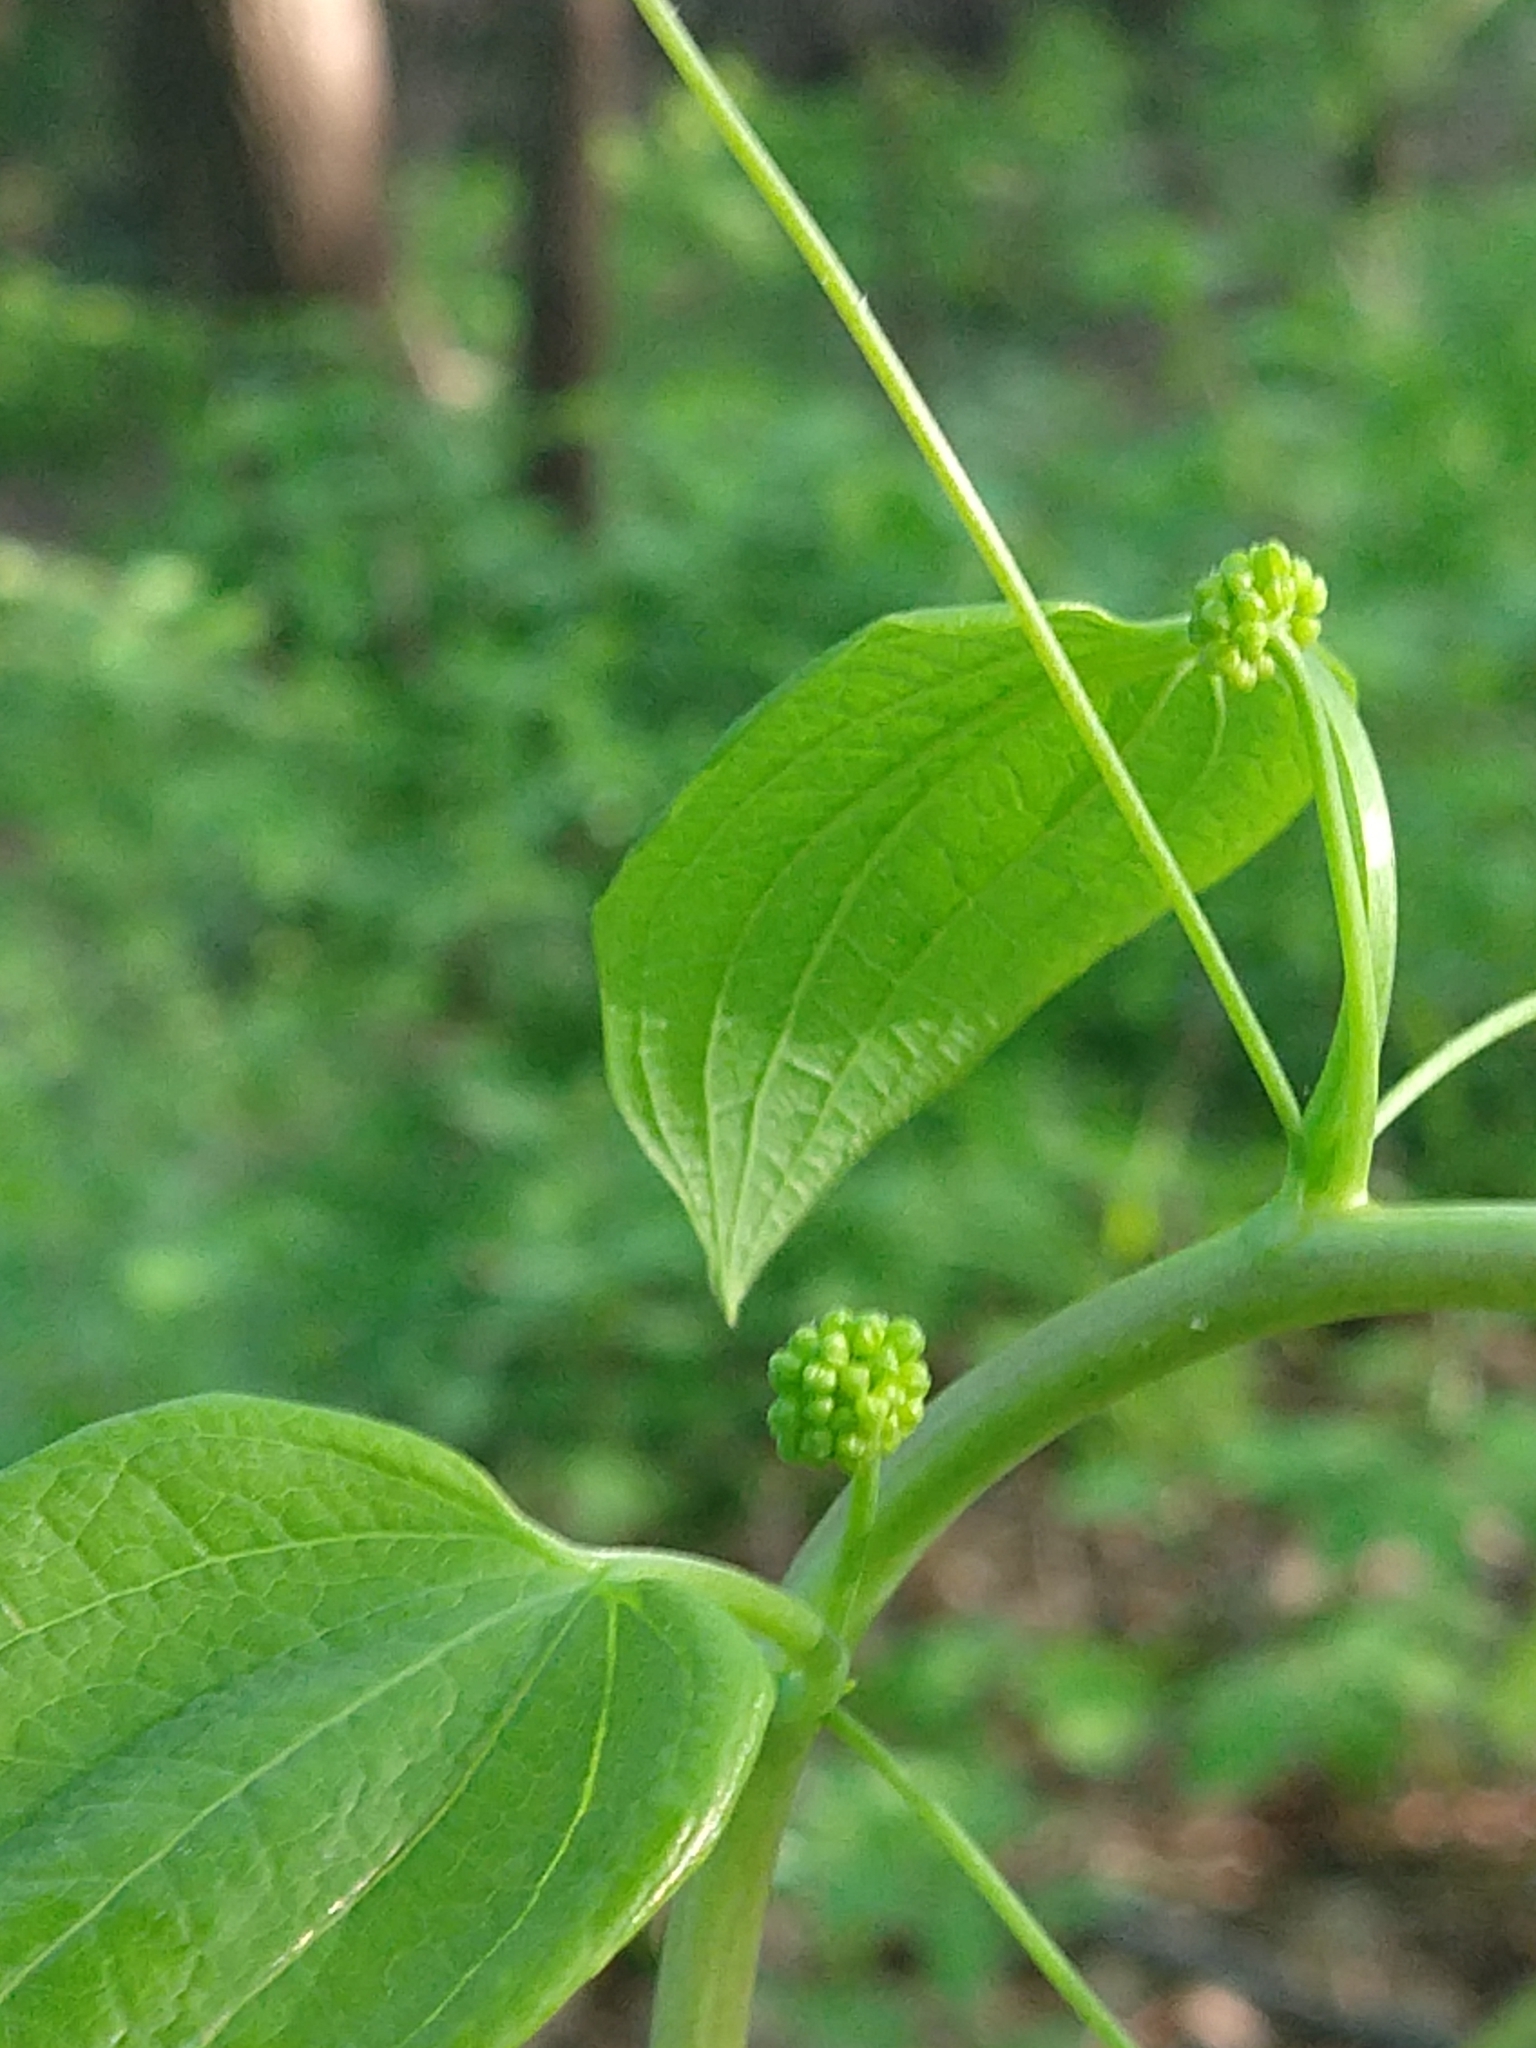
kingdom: Plantae
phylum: Tracheophyta
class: Liliopsida
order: Liliales
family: Smilacaceae
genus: Smilax
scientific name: Smilax lasioneura
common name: Blue ridge carrionflower
